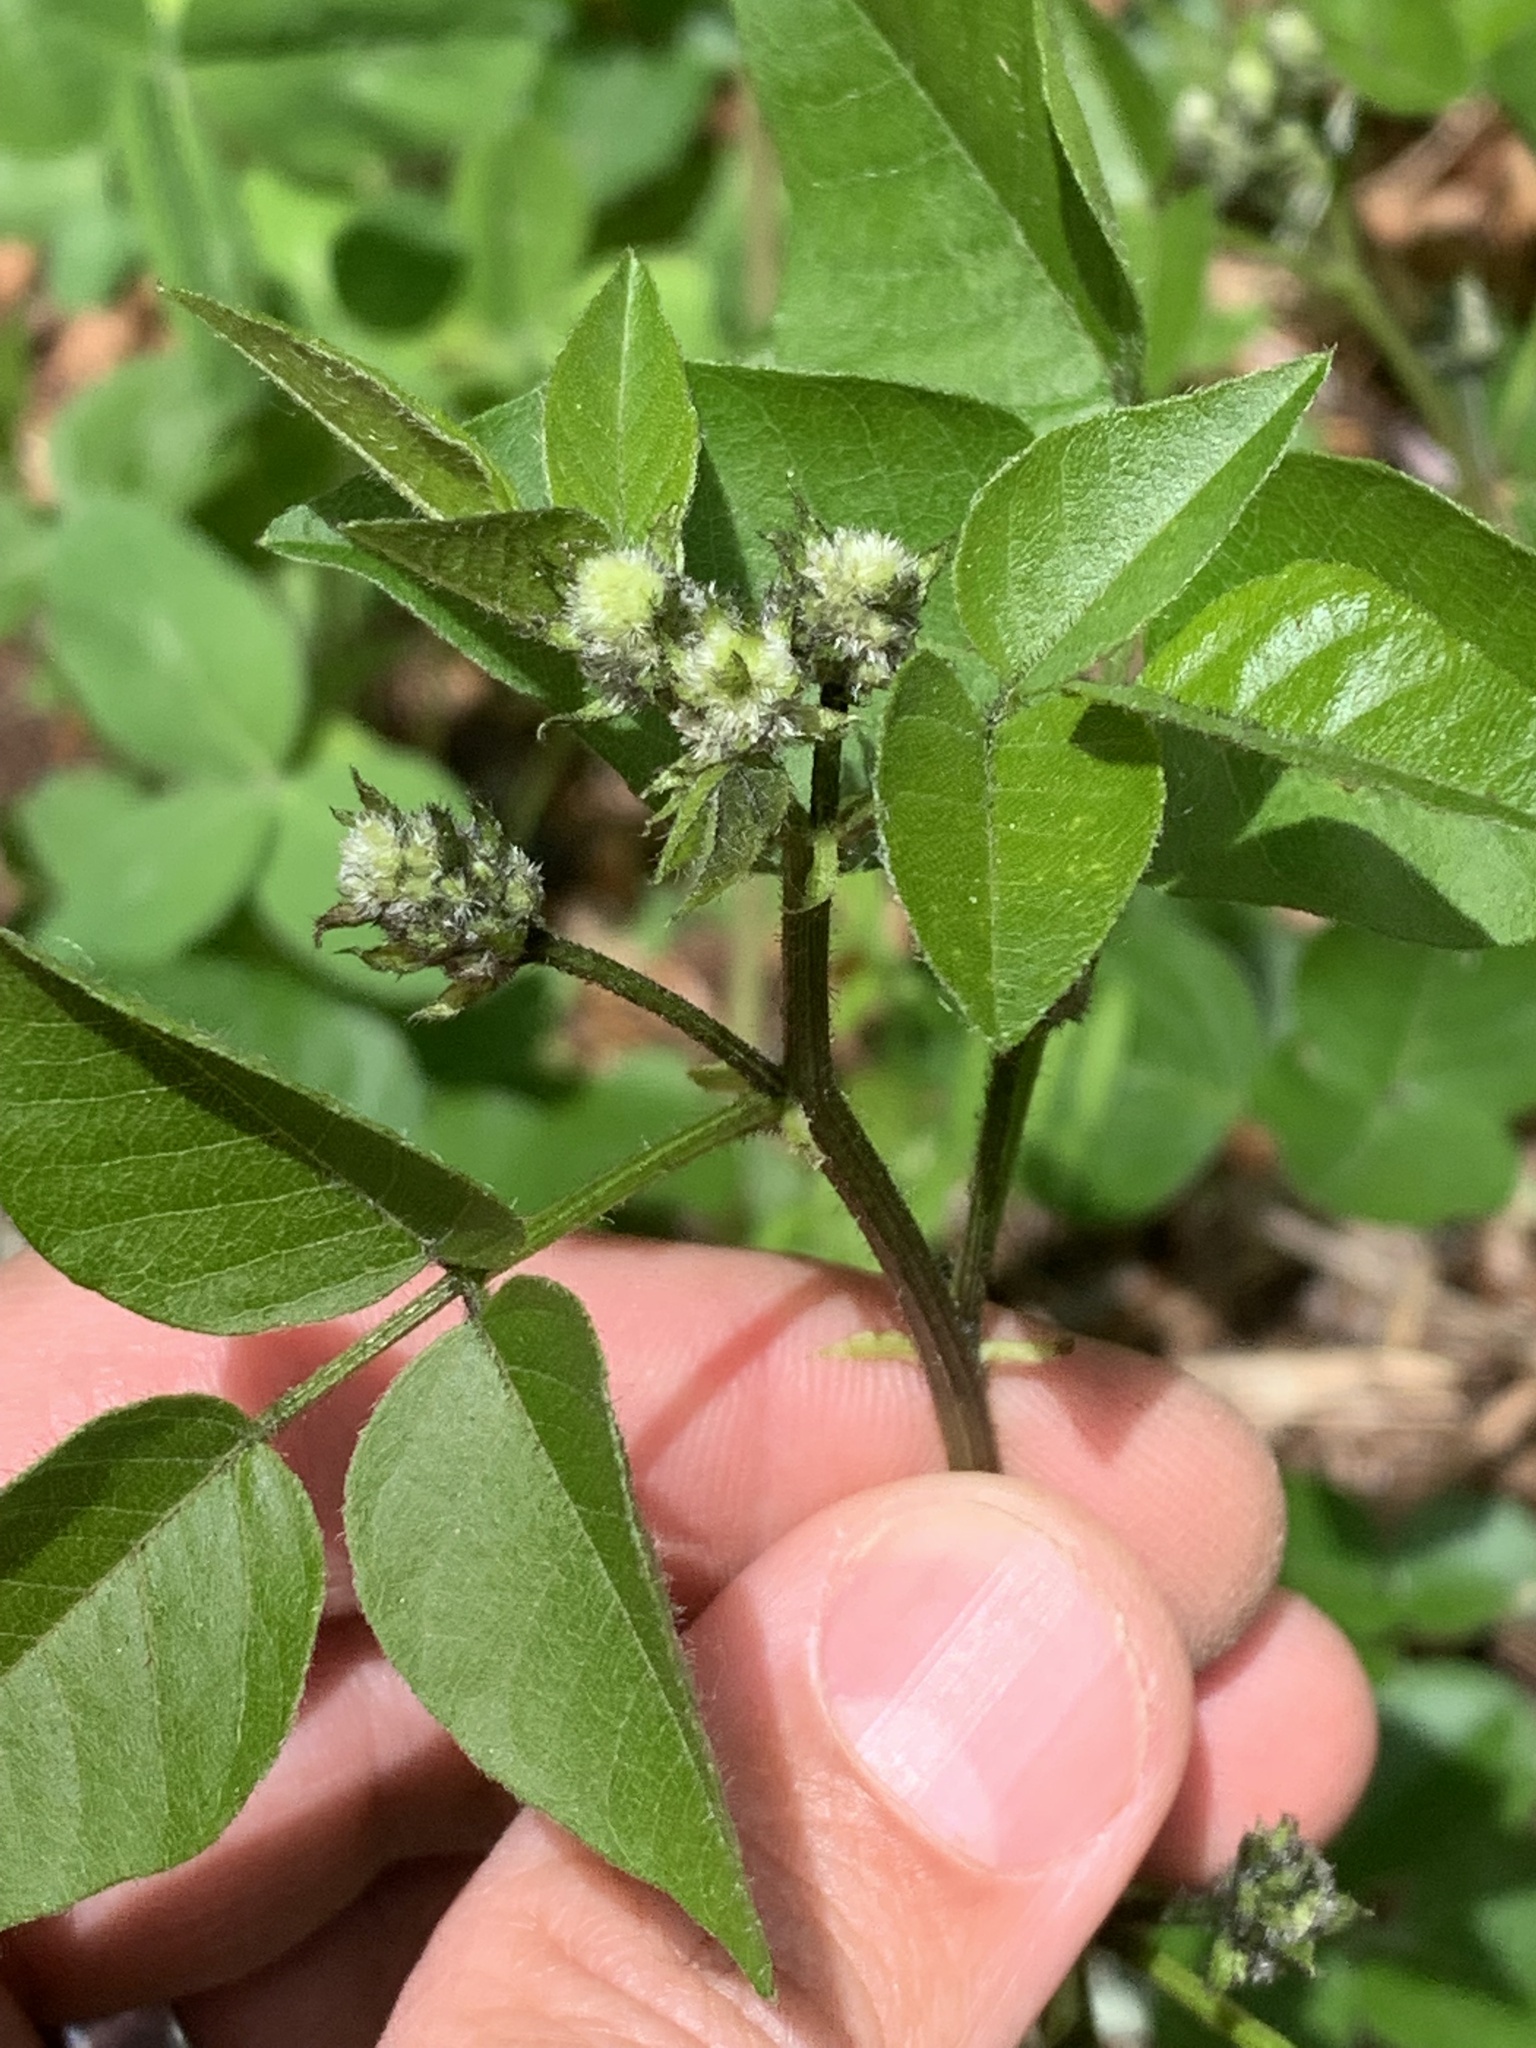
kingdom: Plantae
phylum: Tracheophyta
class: Magnoliopsida
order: Fabales
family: Fabaceae
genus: Rupertia
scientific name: Rupertia physodes
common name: California-tea
